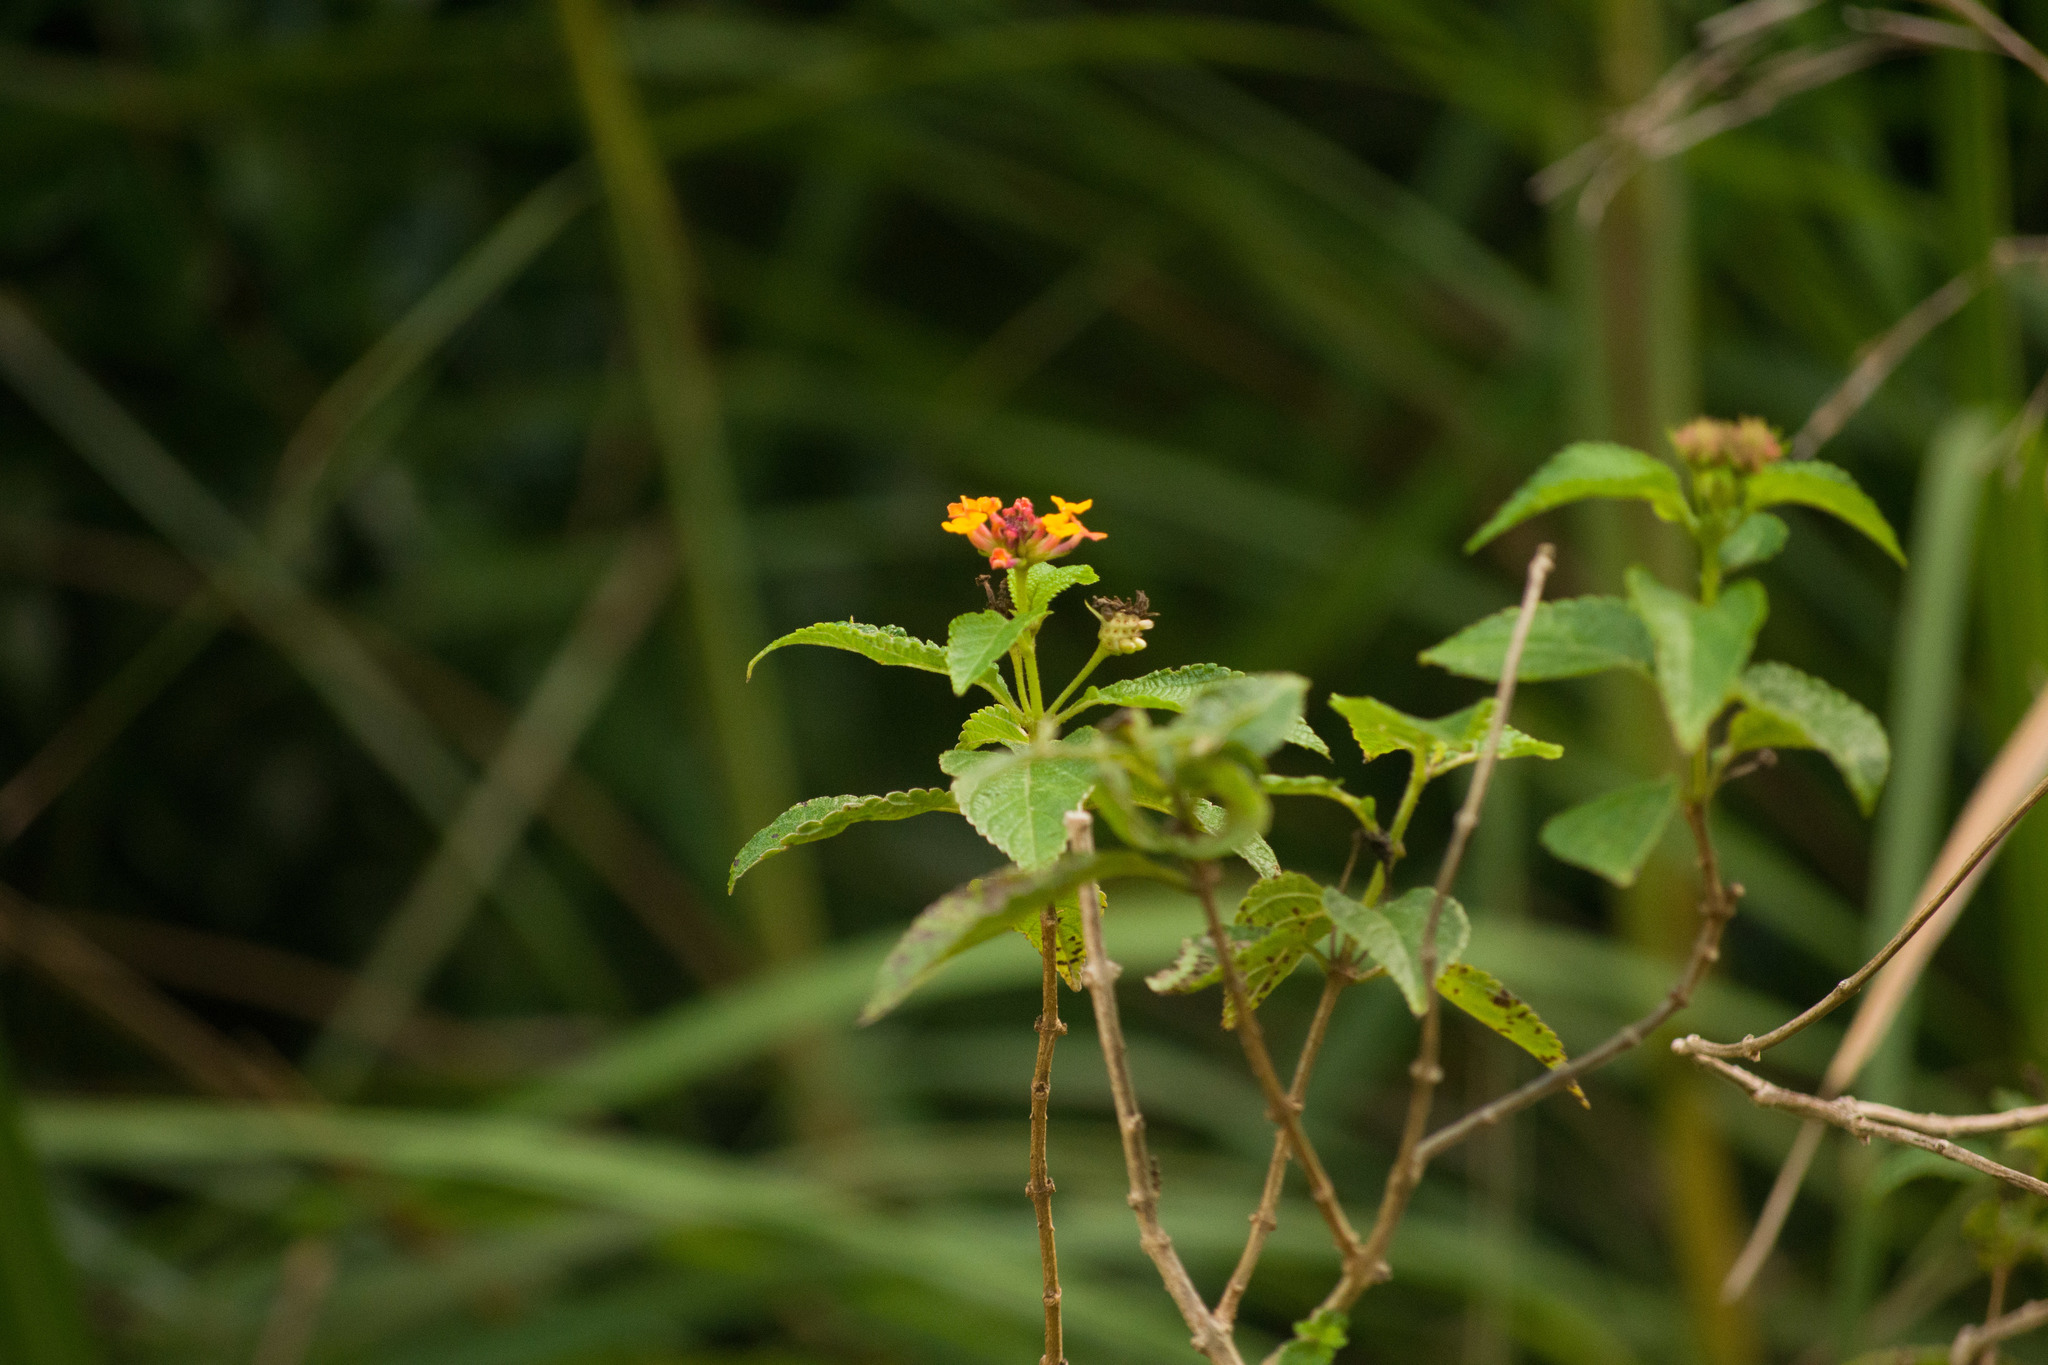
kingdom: Plantae
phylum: Tracheophyta
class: Magnoliopsida
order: Lamiales
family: Verbenaceae
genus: Lantana
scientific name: Lantana camara
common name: Lantana
